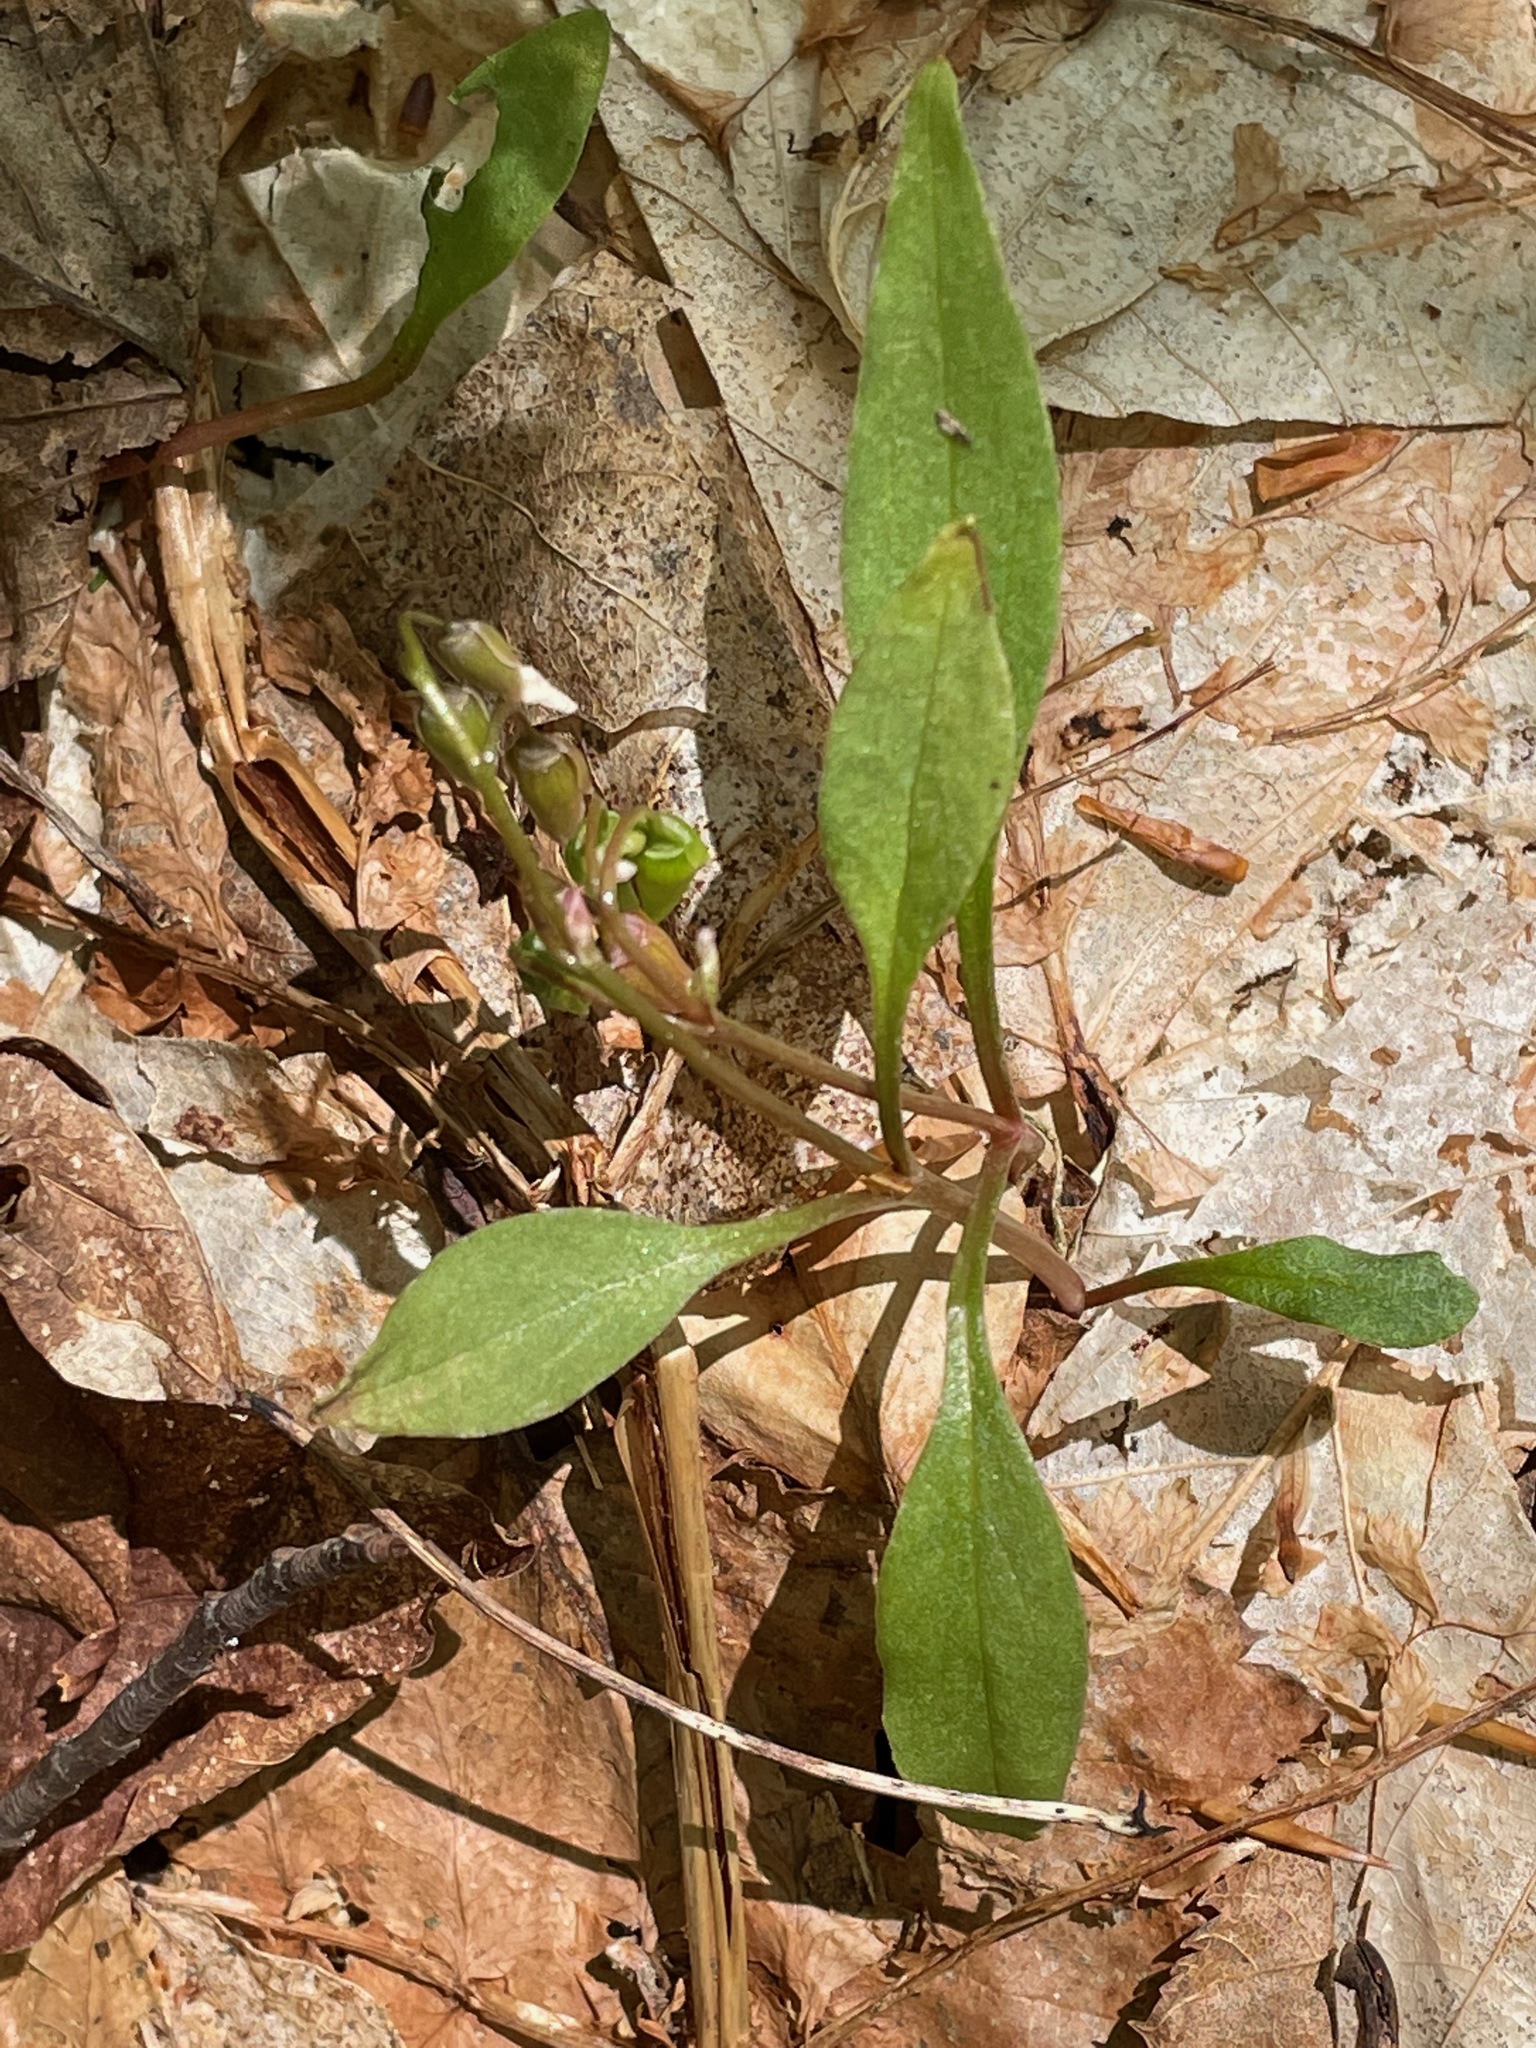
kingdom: Plantae
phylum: Tracheophyta
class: Magnoliopsida
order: Caryophyllales
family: Montiaceae
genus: Claytonia
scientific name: Claytonia caroliniana
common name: Carolina spring beauty
